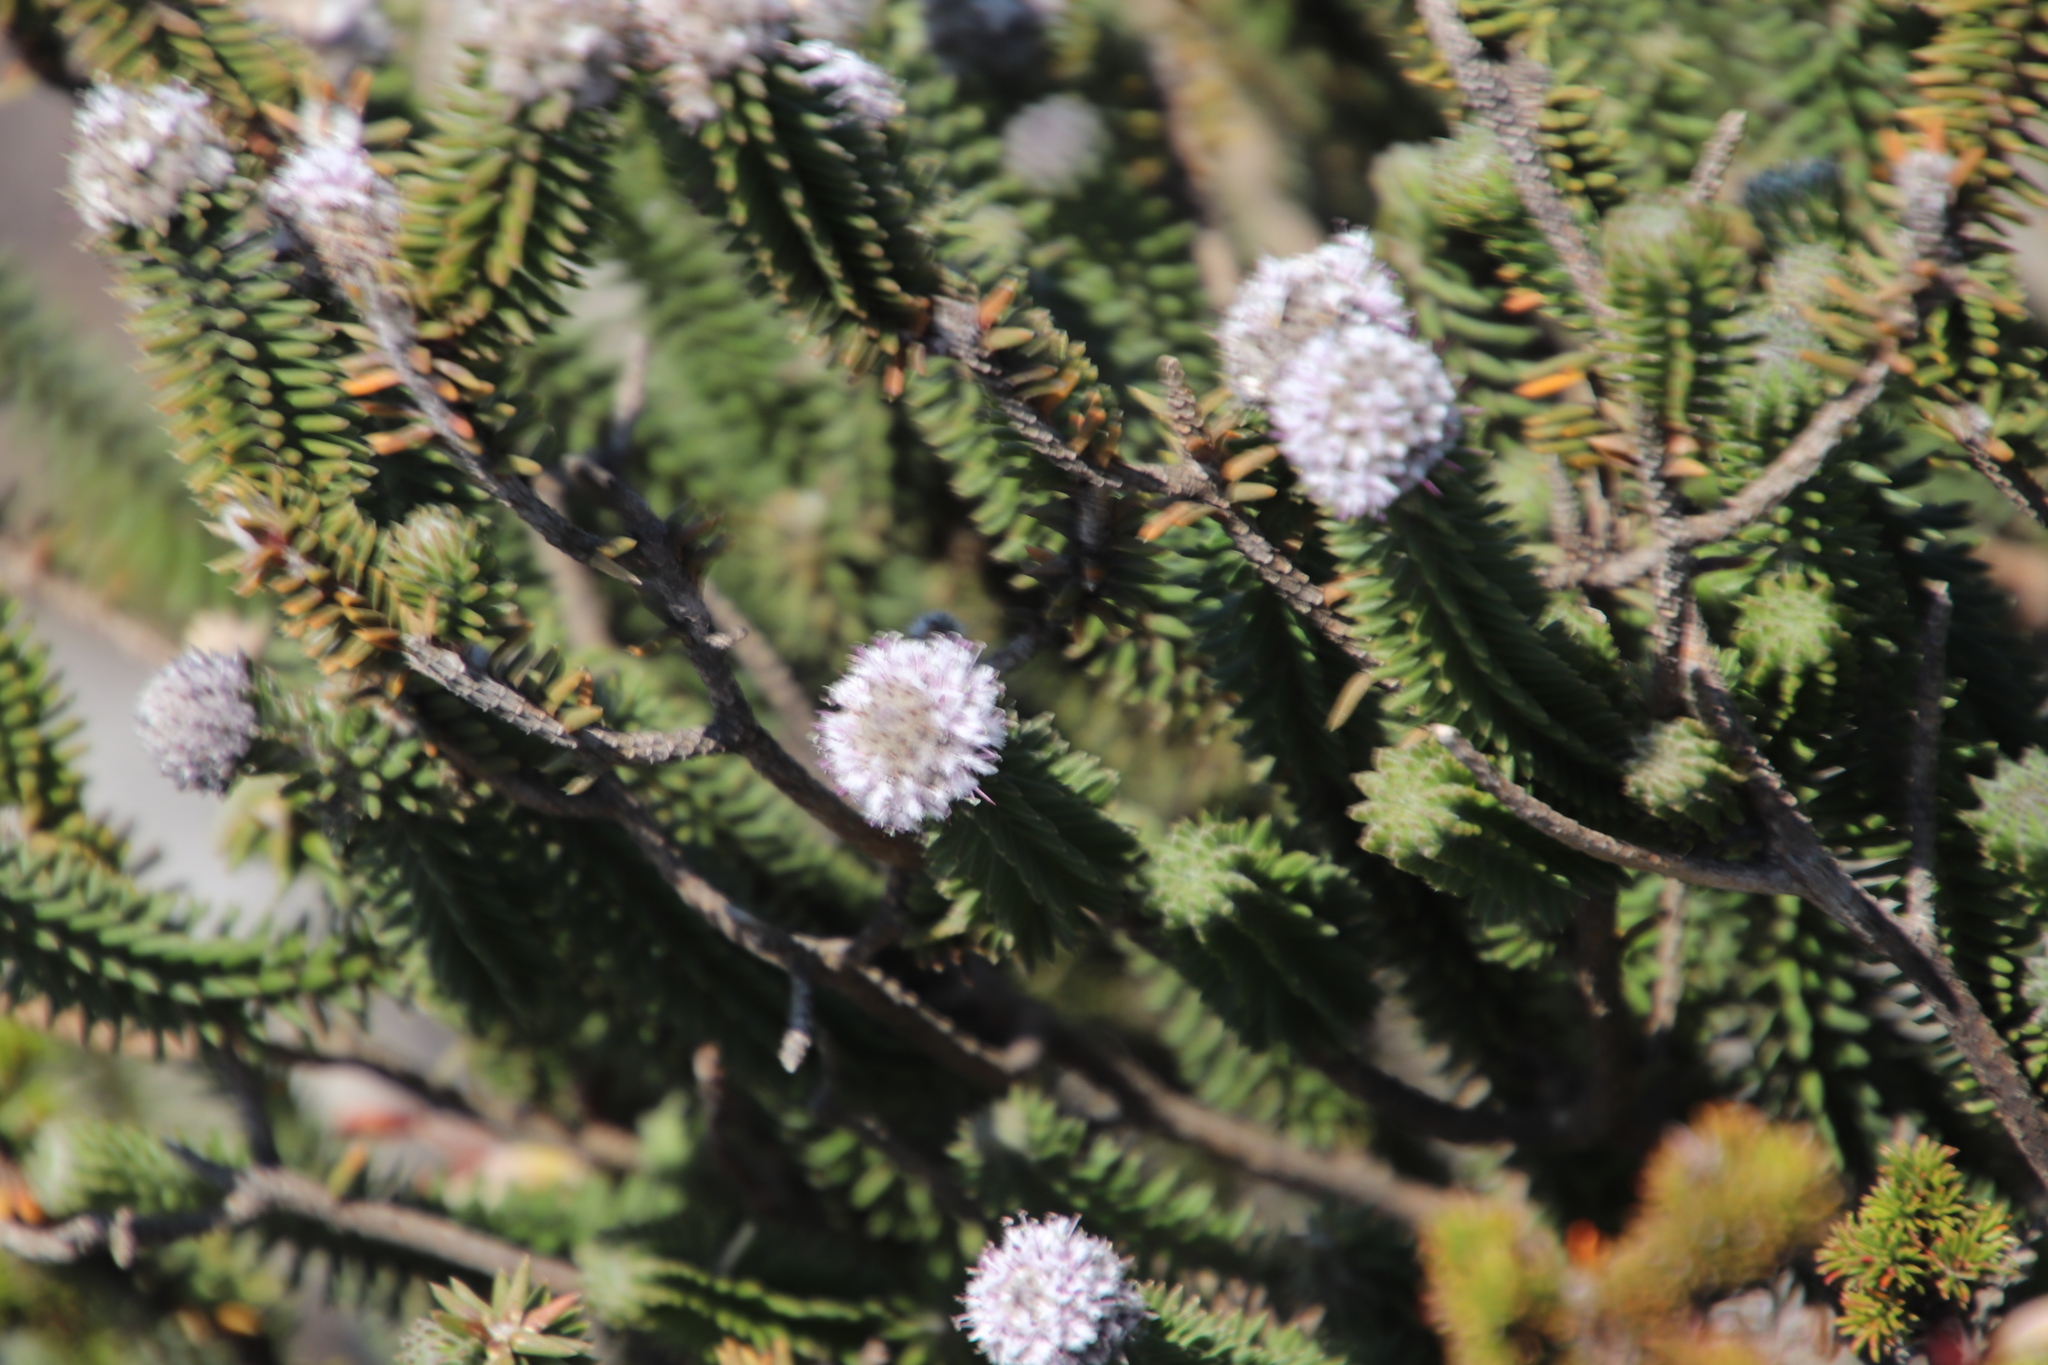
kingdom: Plantae
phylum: Tracheophyta
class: Magnoliopsida
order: Lamiales
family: Stilbaceae
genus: Kogelbergia
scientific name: Kogelbergia verticillata
